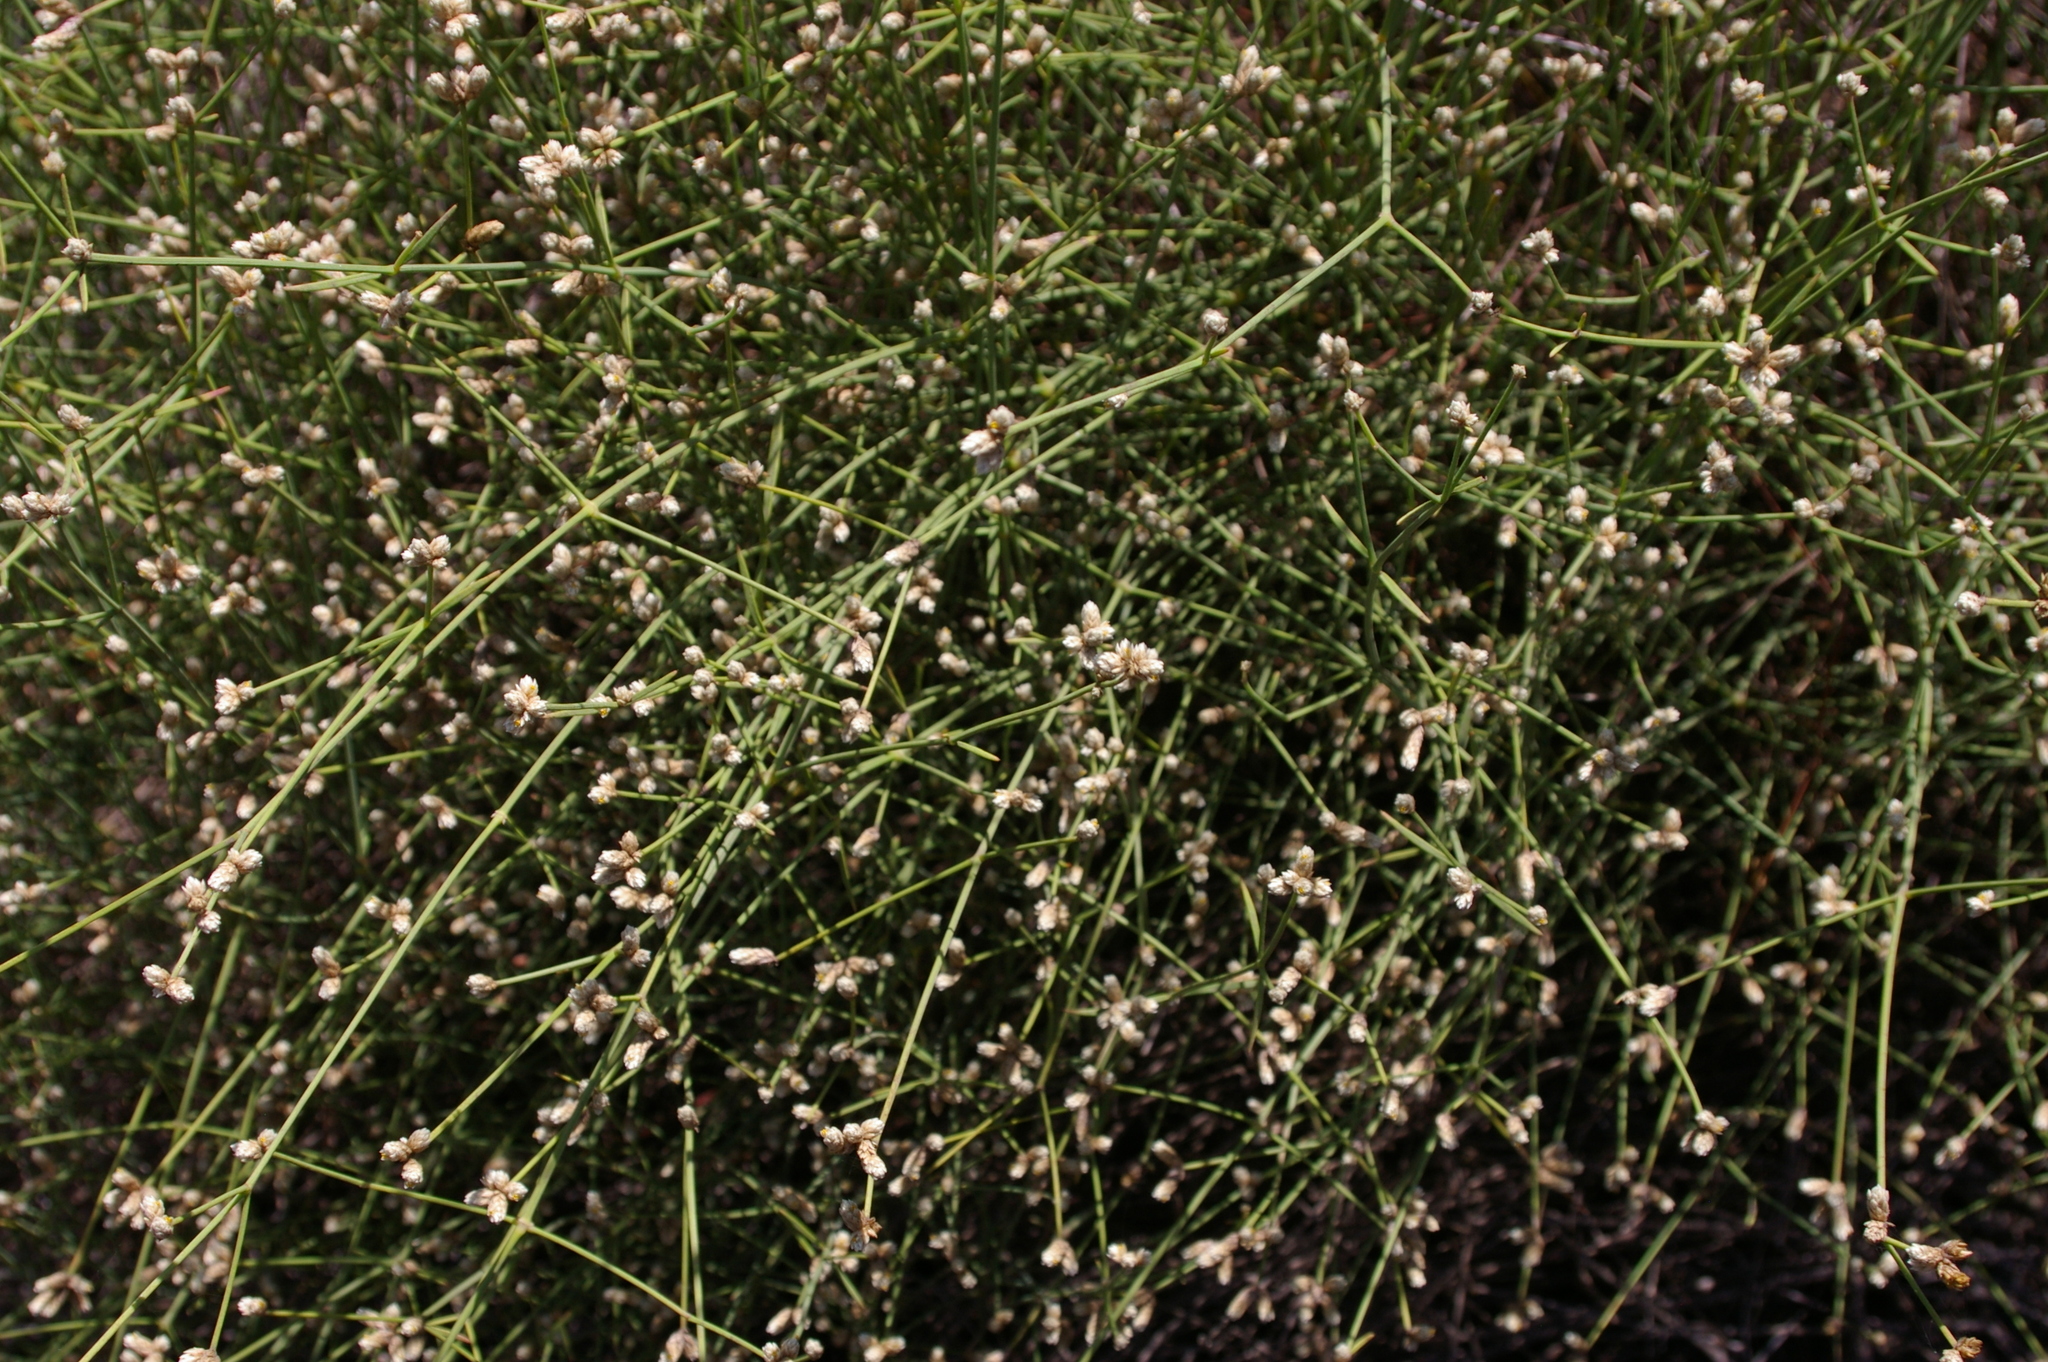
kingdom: Plantae
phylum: Tracheophyta
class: Magnoliopsida
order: Caryophyllales
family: Amaranthaceae
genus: Alternanthera
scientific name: Alternanthera filifolia
